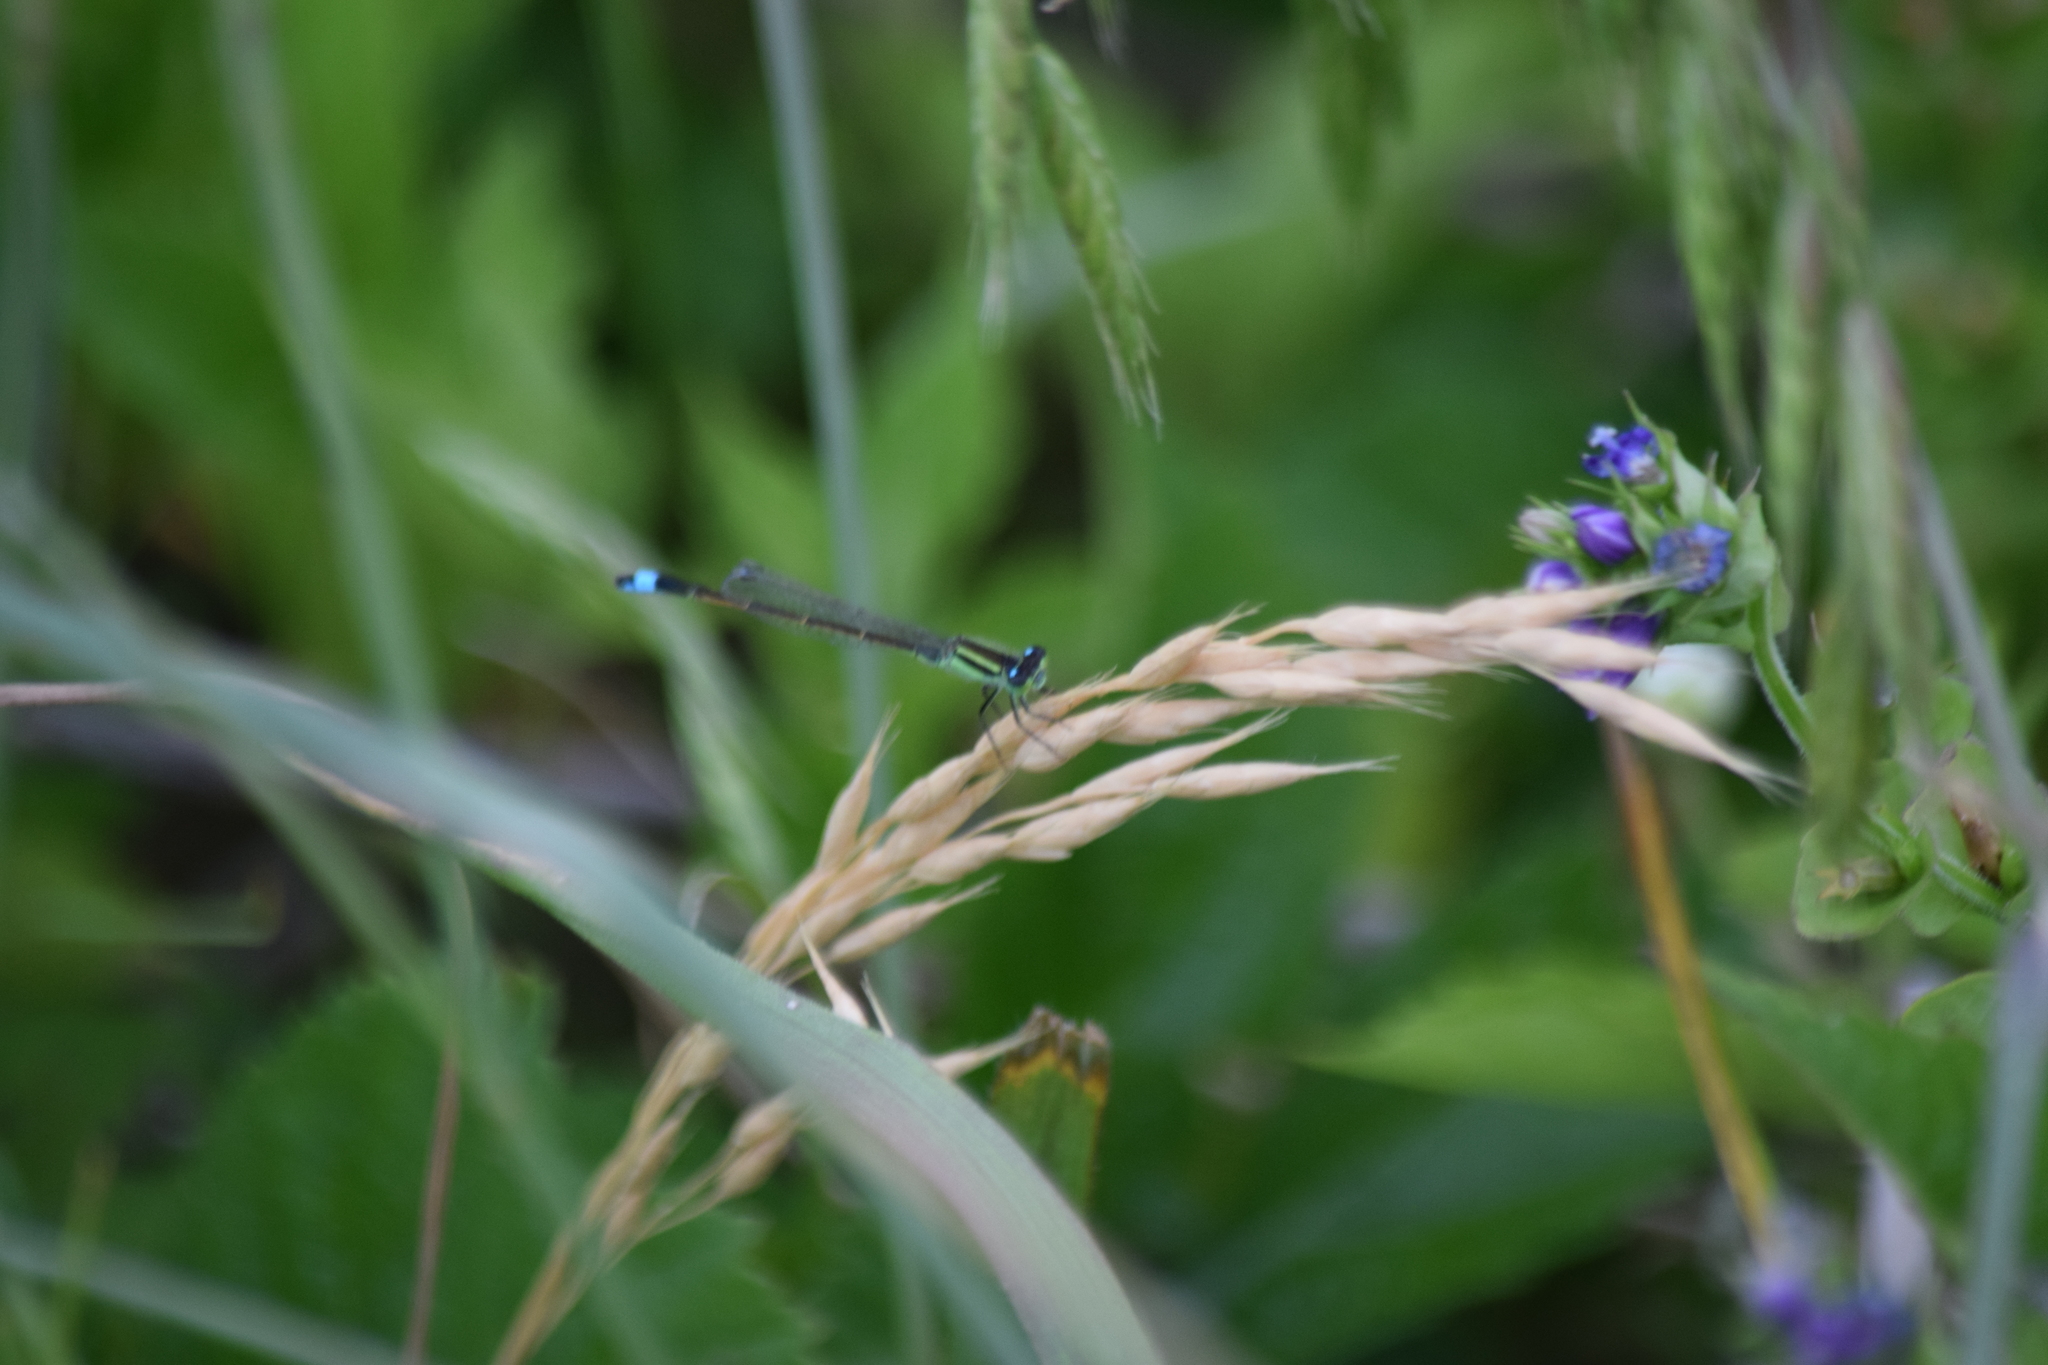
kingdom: Animalia
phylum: Arthropoda
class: Insecta
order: Odonata
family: Coenagrionidae
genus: Ischnura
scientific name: Ischnura ramburii
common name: Rambur's forktail
